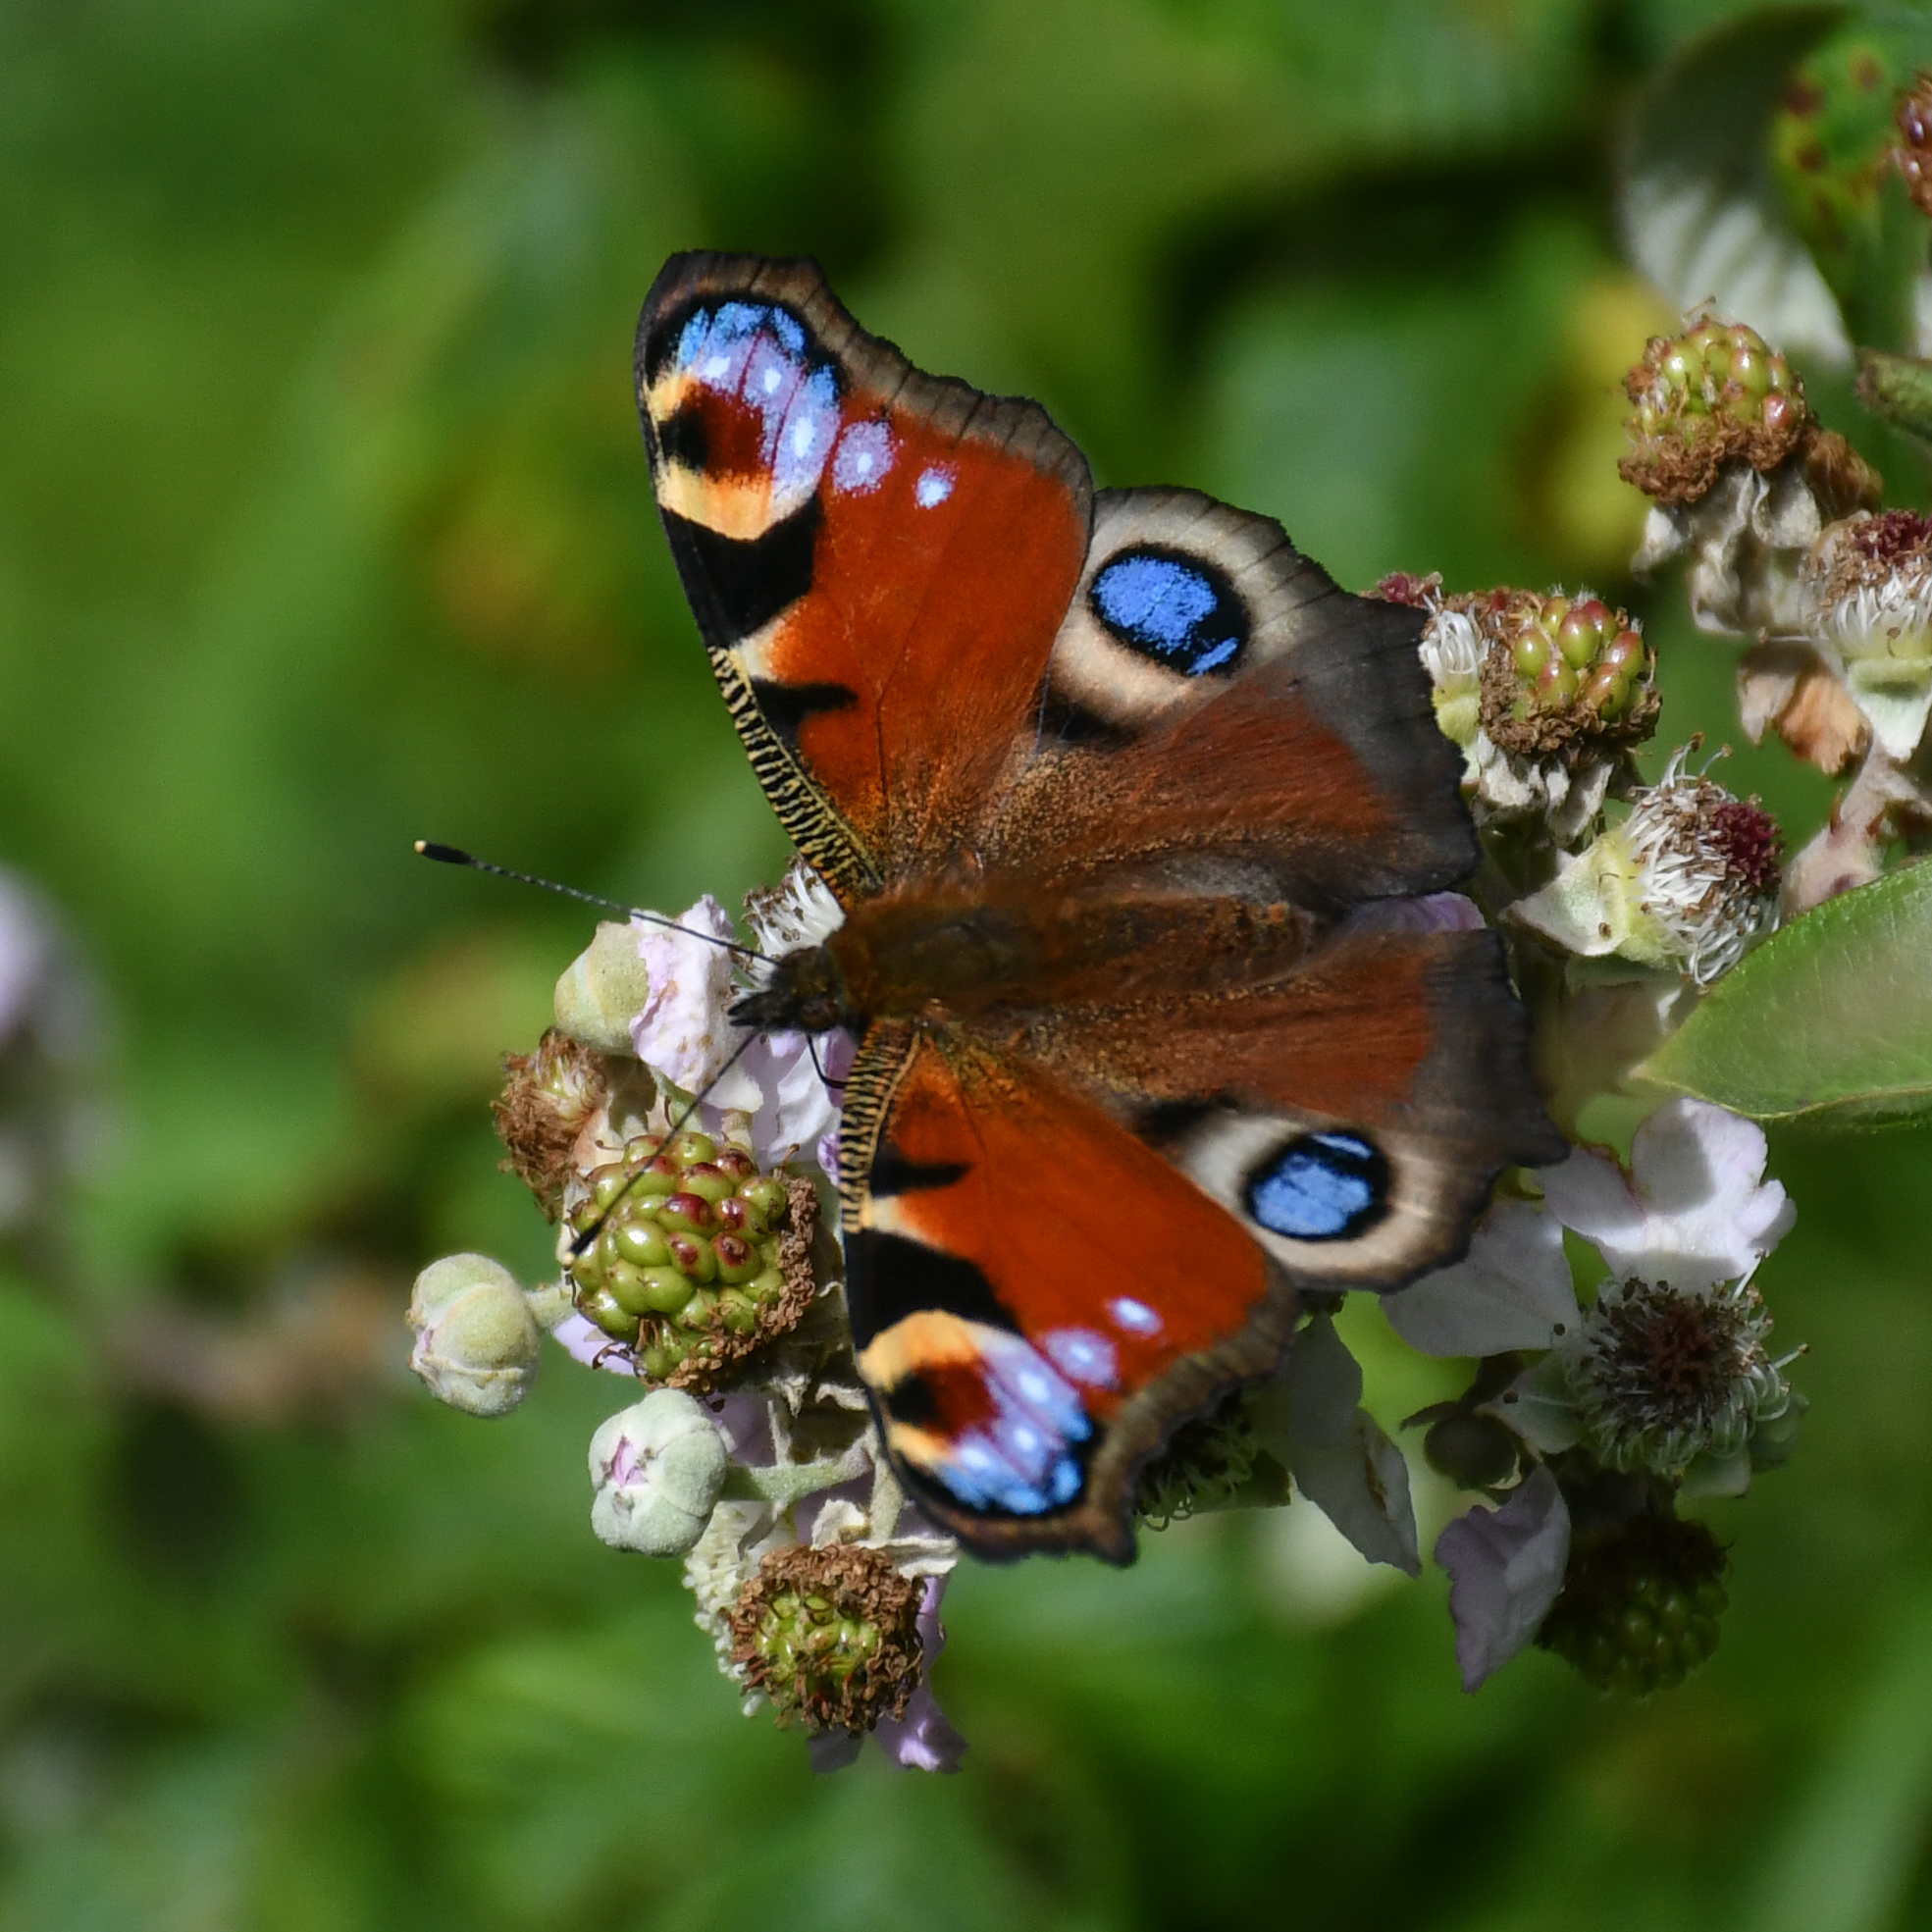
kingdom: Animalia
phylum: Arthropoda
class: Insecta
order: Lepidoptera
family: Nymphalidae
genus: Aglais
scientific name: Aglais io
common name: Peacock
